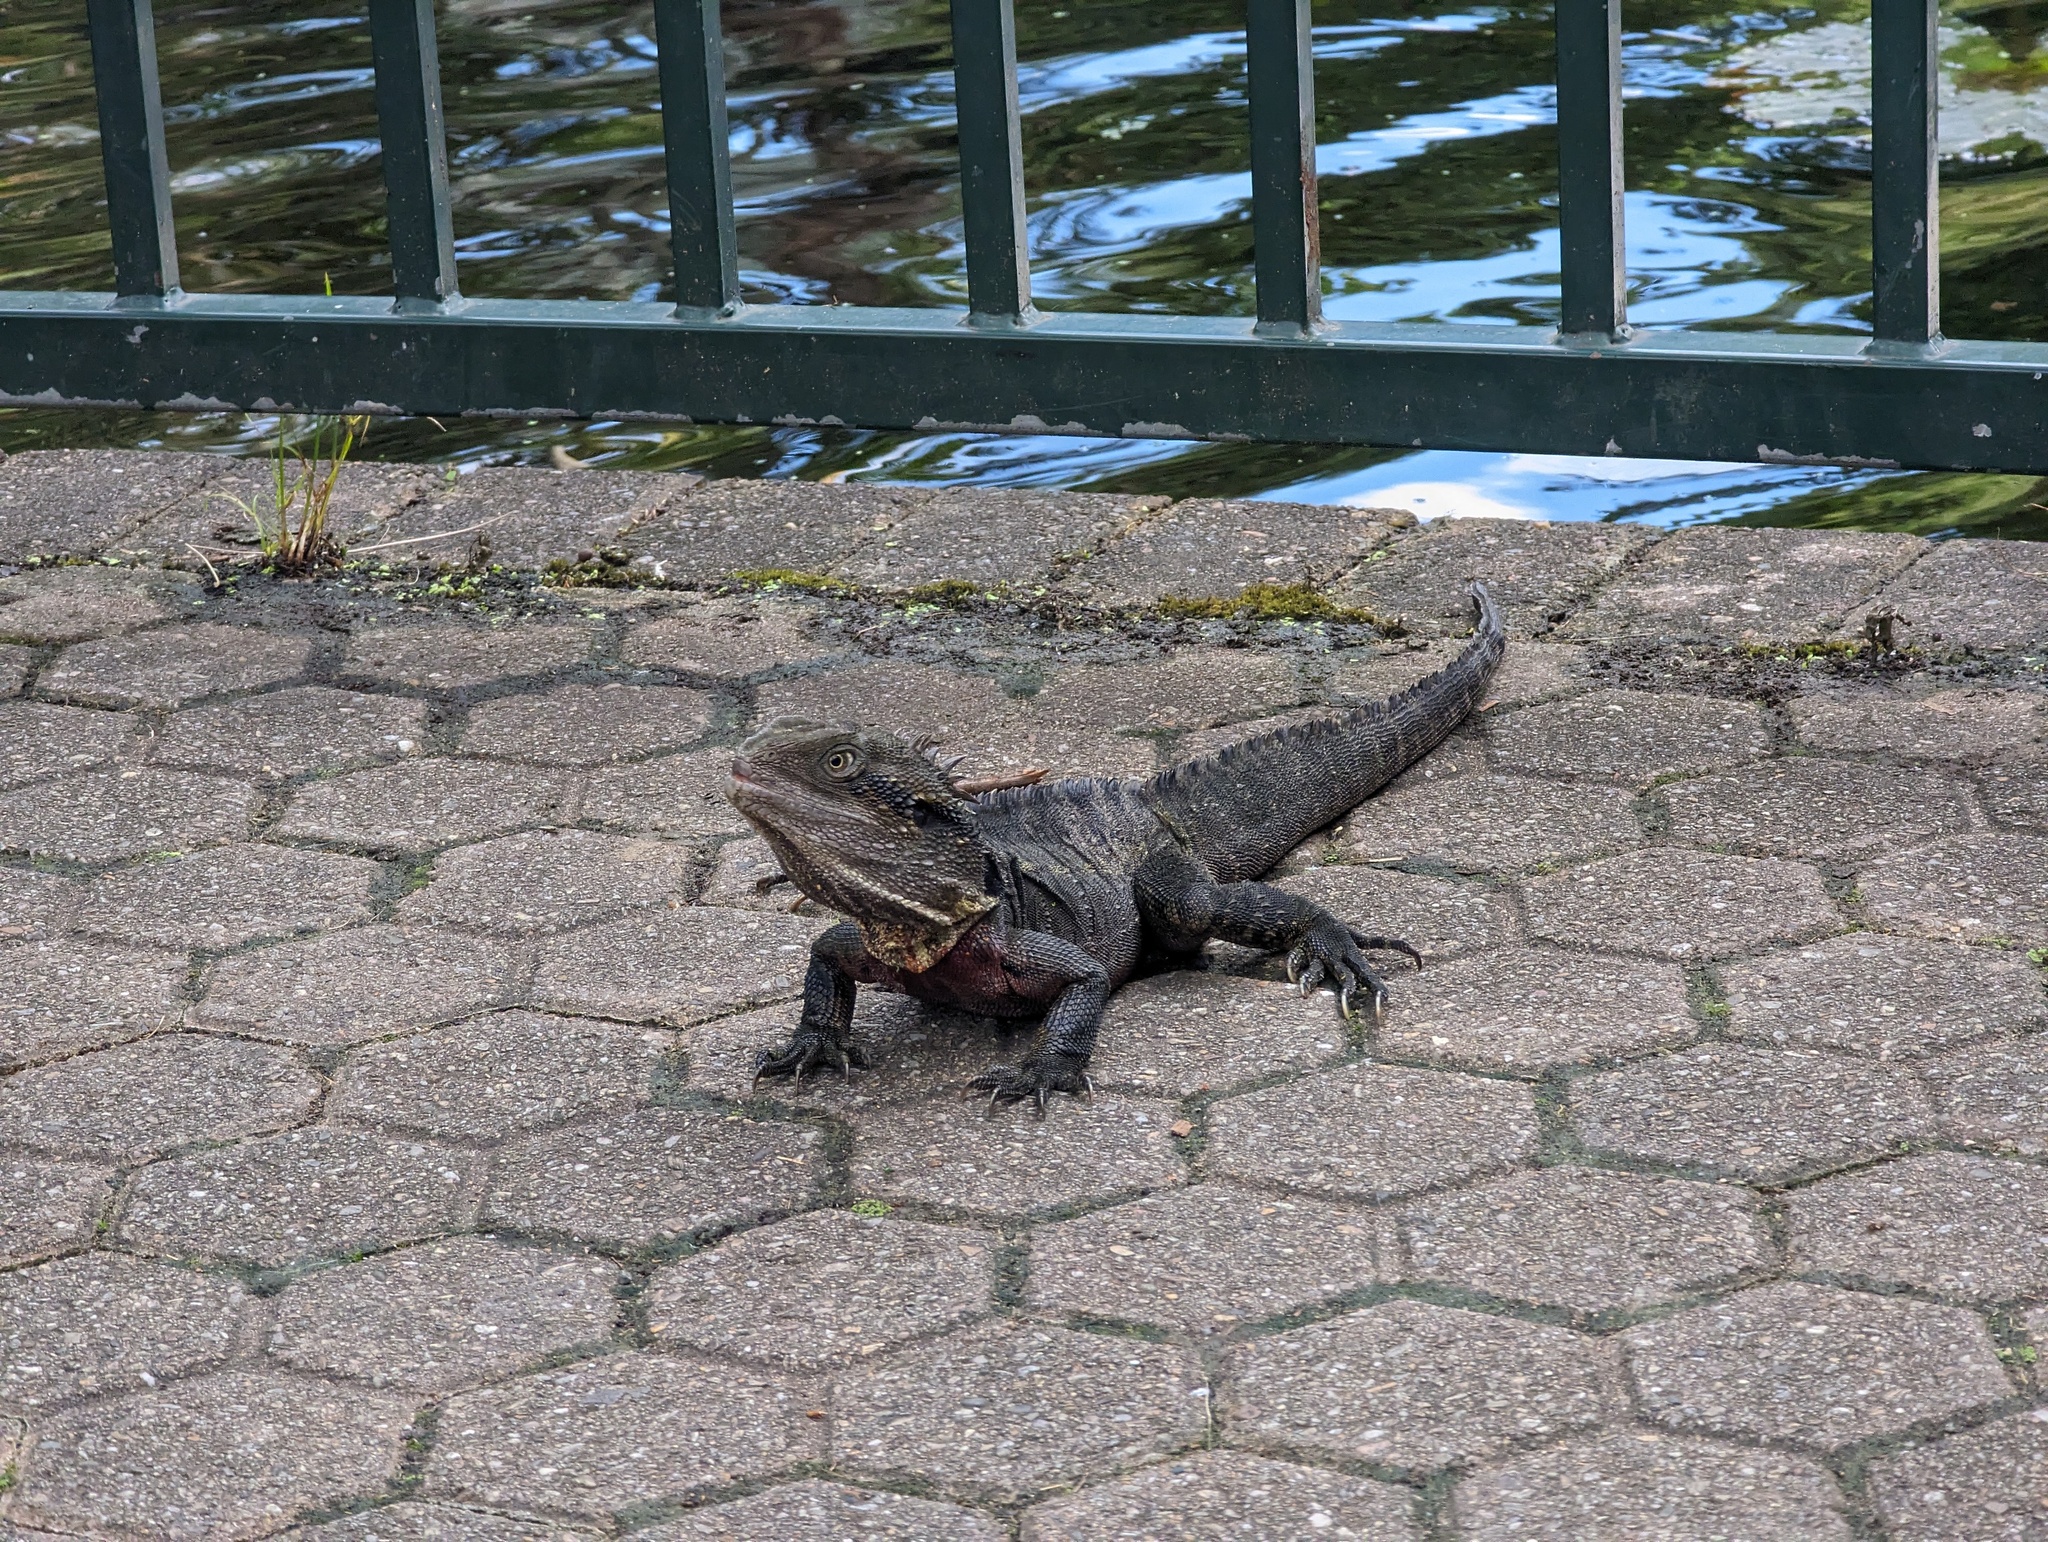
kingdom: Animalia
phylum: Chordata
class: Squamata
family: Agamidae
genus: Intellagama
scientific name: Intellagama lesueurii
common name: Eastern water dragon
